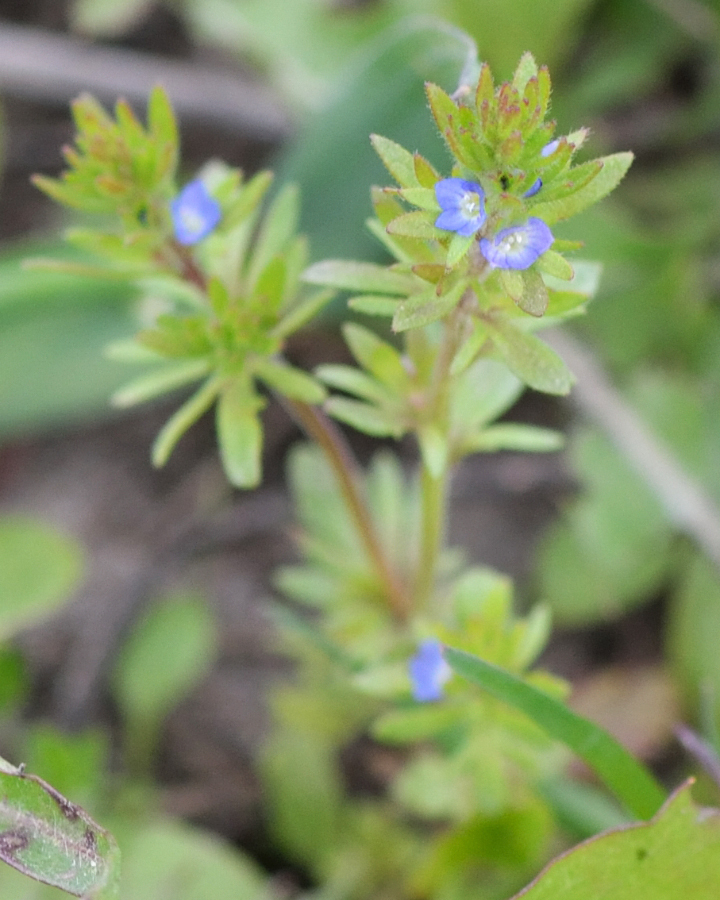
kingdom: Plantae
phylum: Tracheophyta
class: Magnoliopsida
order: Lamiales
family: Plantaginaceae
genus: Veronica
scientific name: Veronica verna
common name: Spring speedwell
